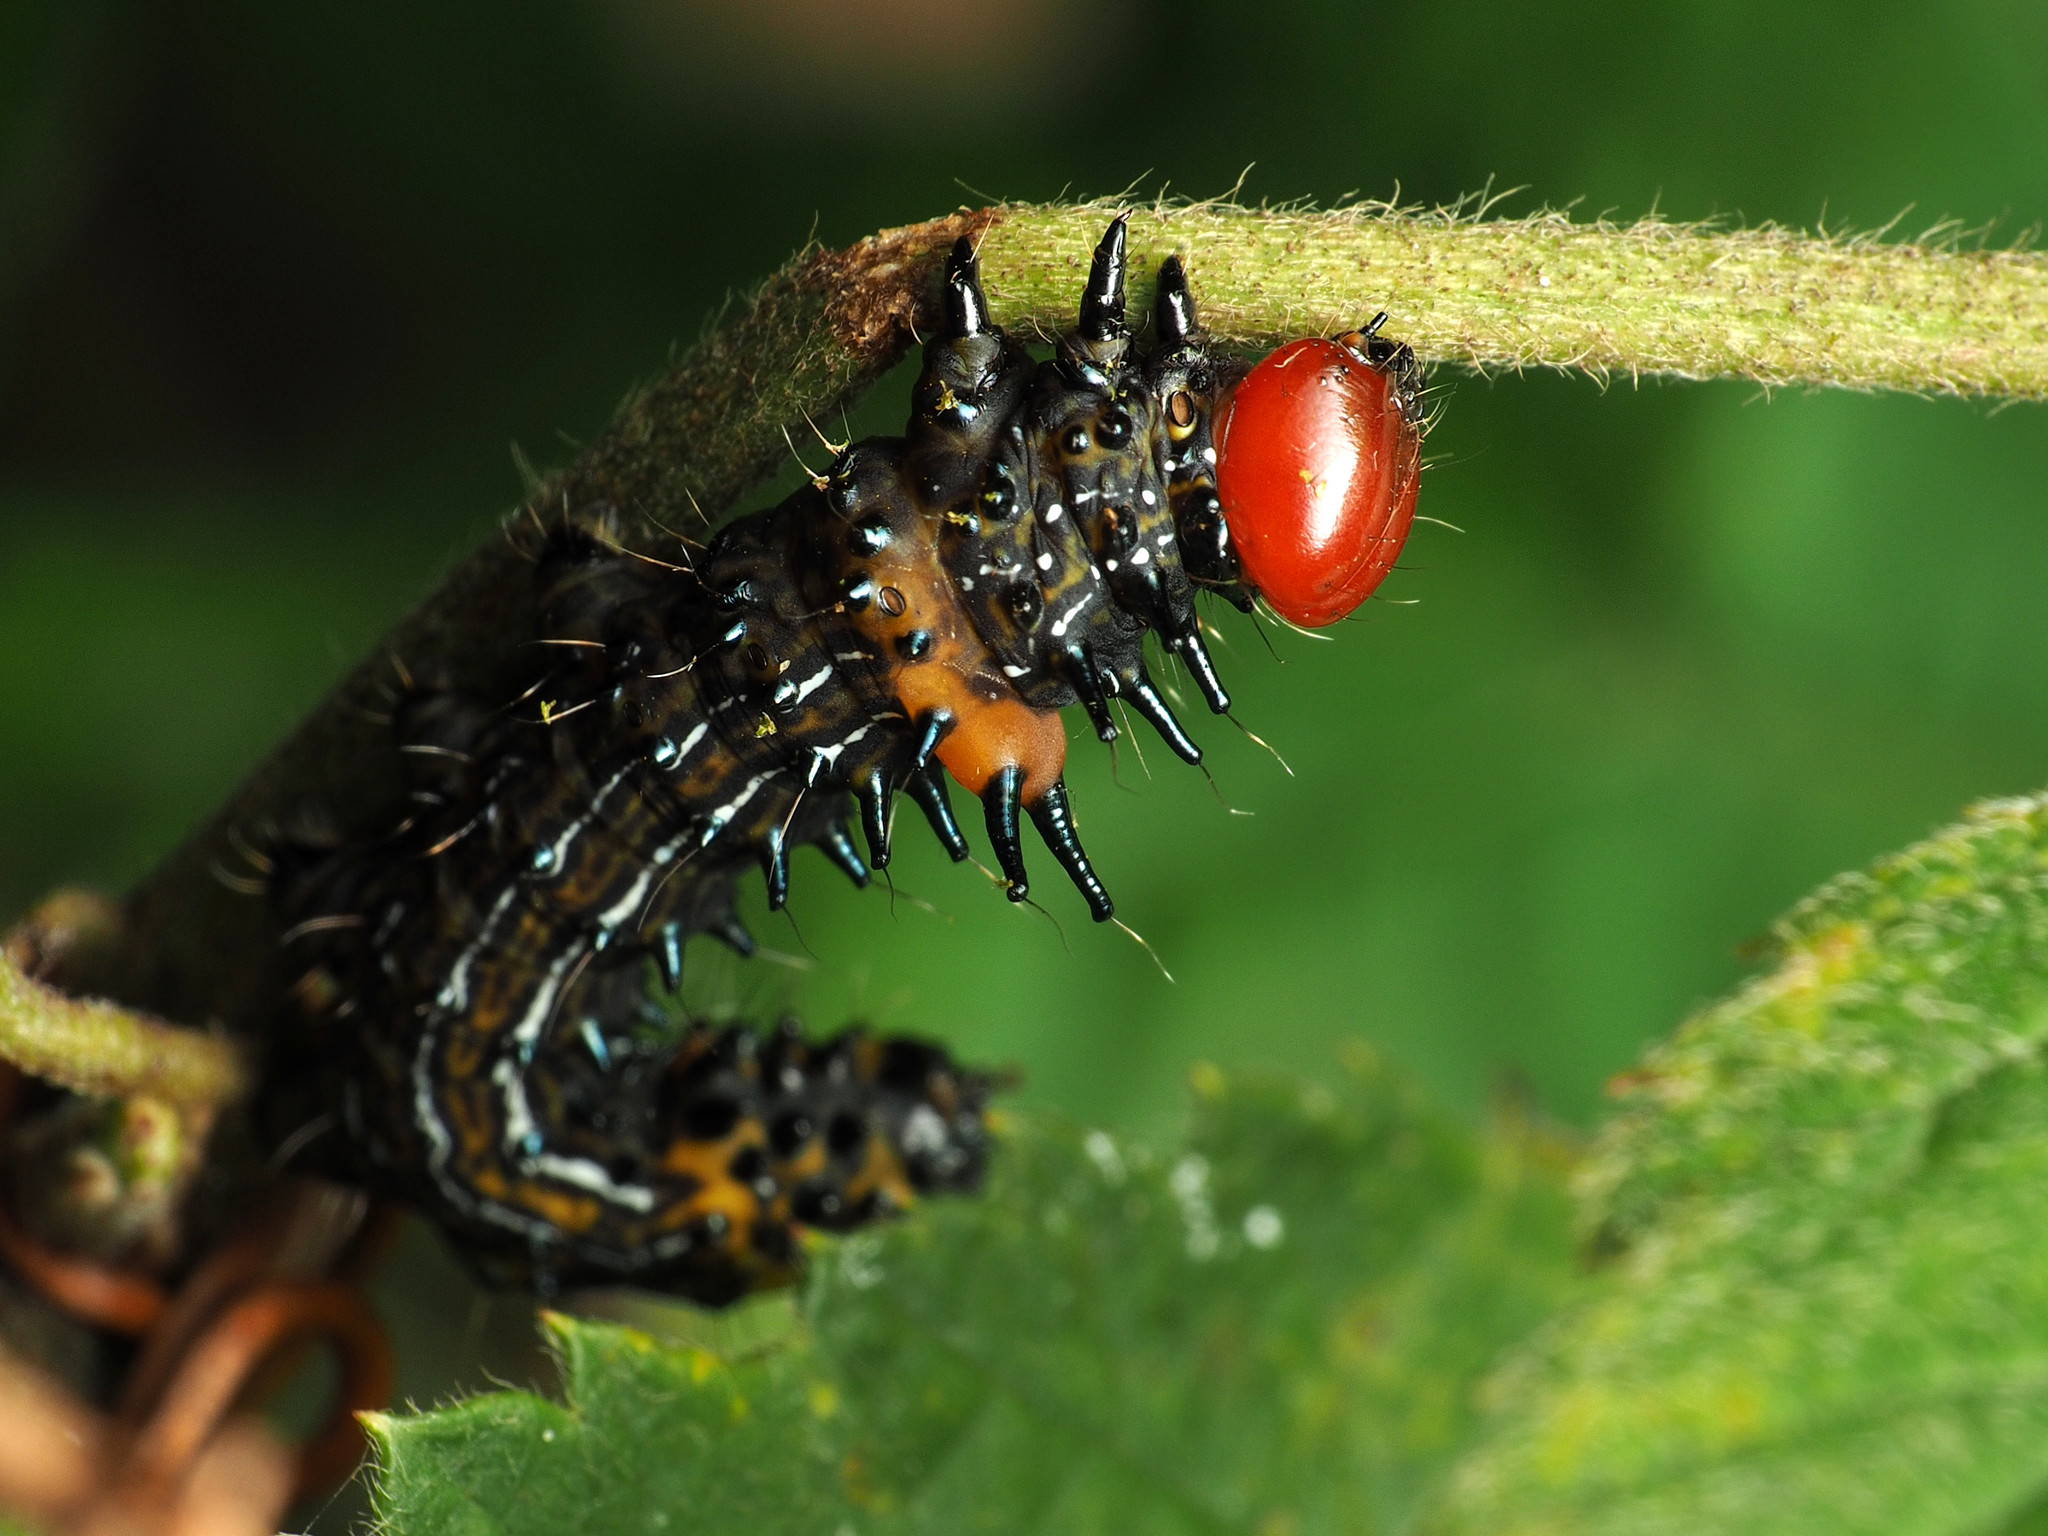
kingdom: Animalia
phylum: Arthropoda
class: Insecta
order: Lepidoptera
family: Notodontidae
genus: Schizura
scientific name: Schizura
